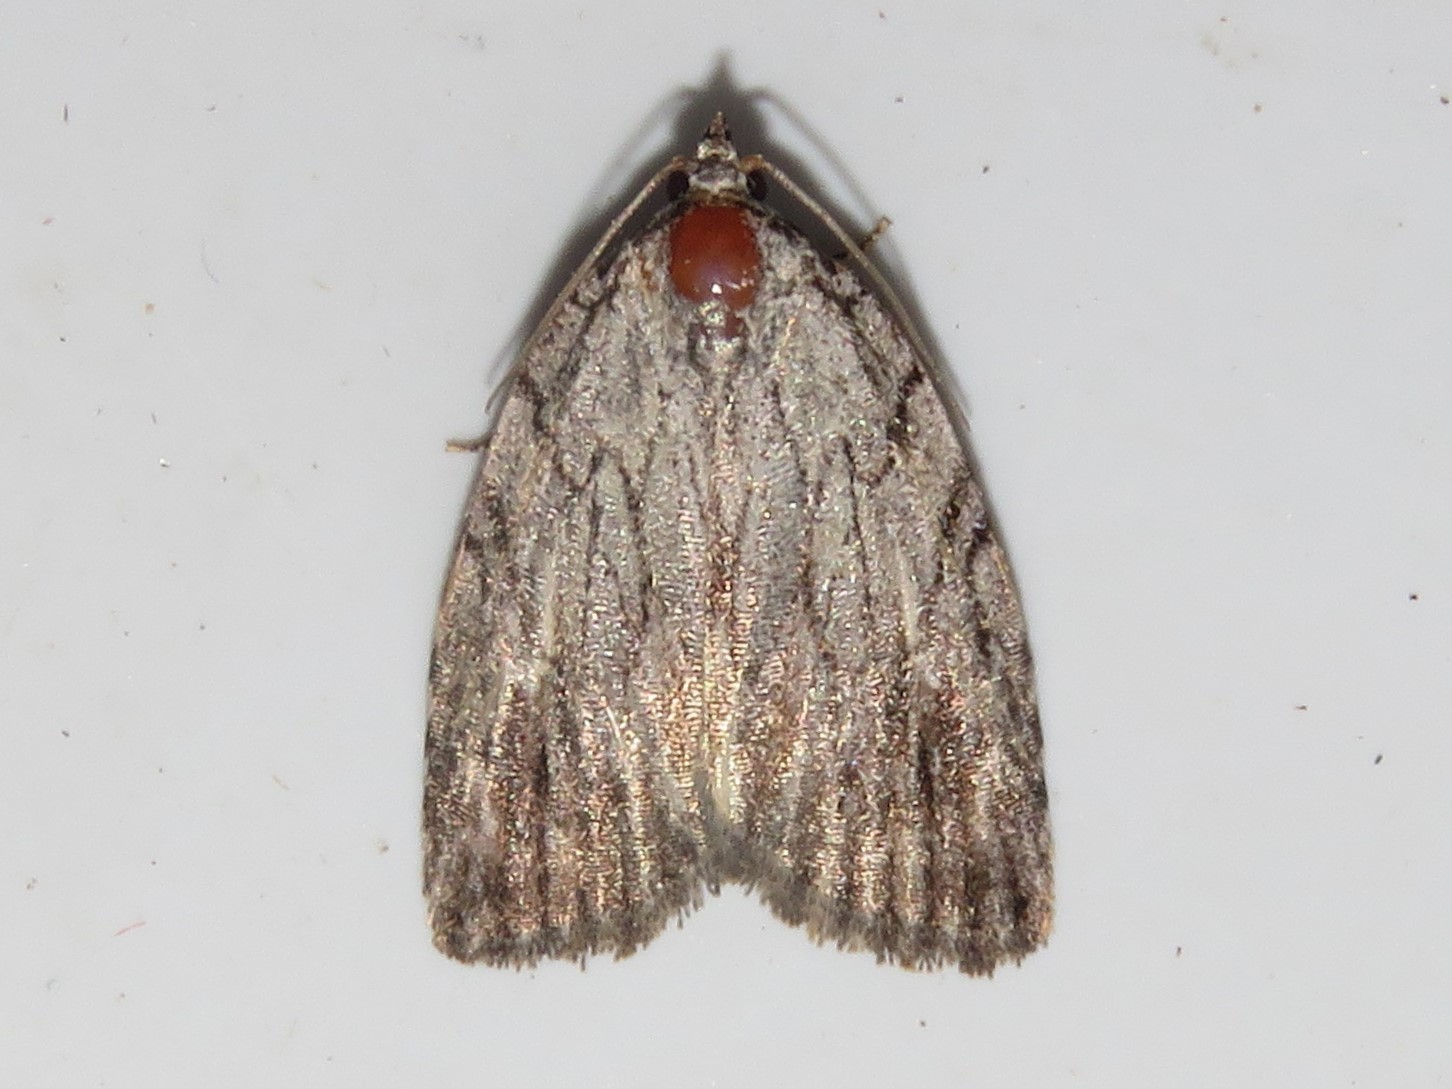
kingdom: Animalia
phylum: Arthropoda
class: Insecta
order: Lepidoptera
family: Noctuidae
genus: Balsa
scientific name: Balsa tristrigella
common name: Three-lined balsa moth
